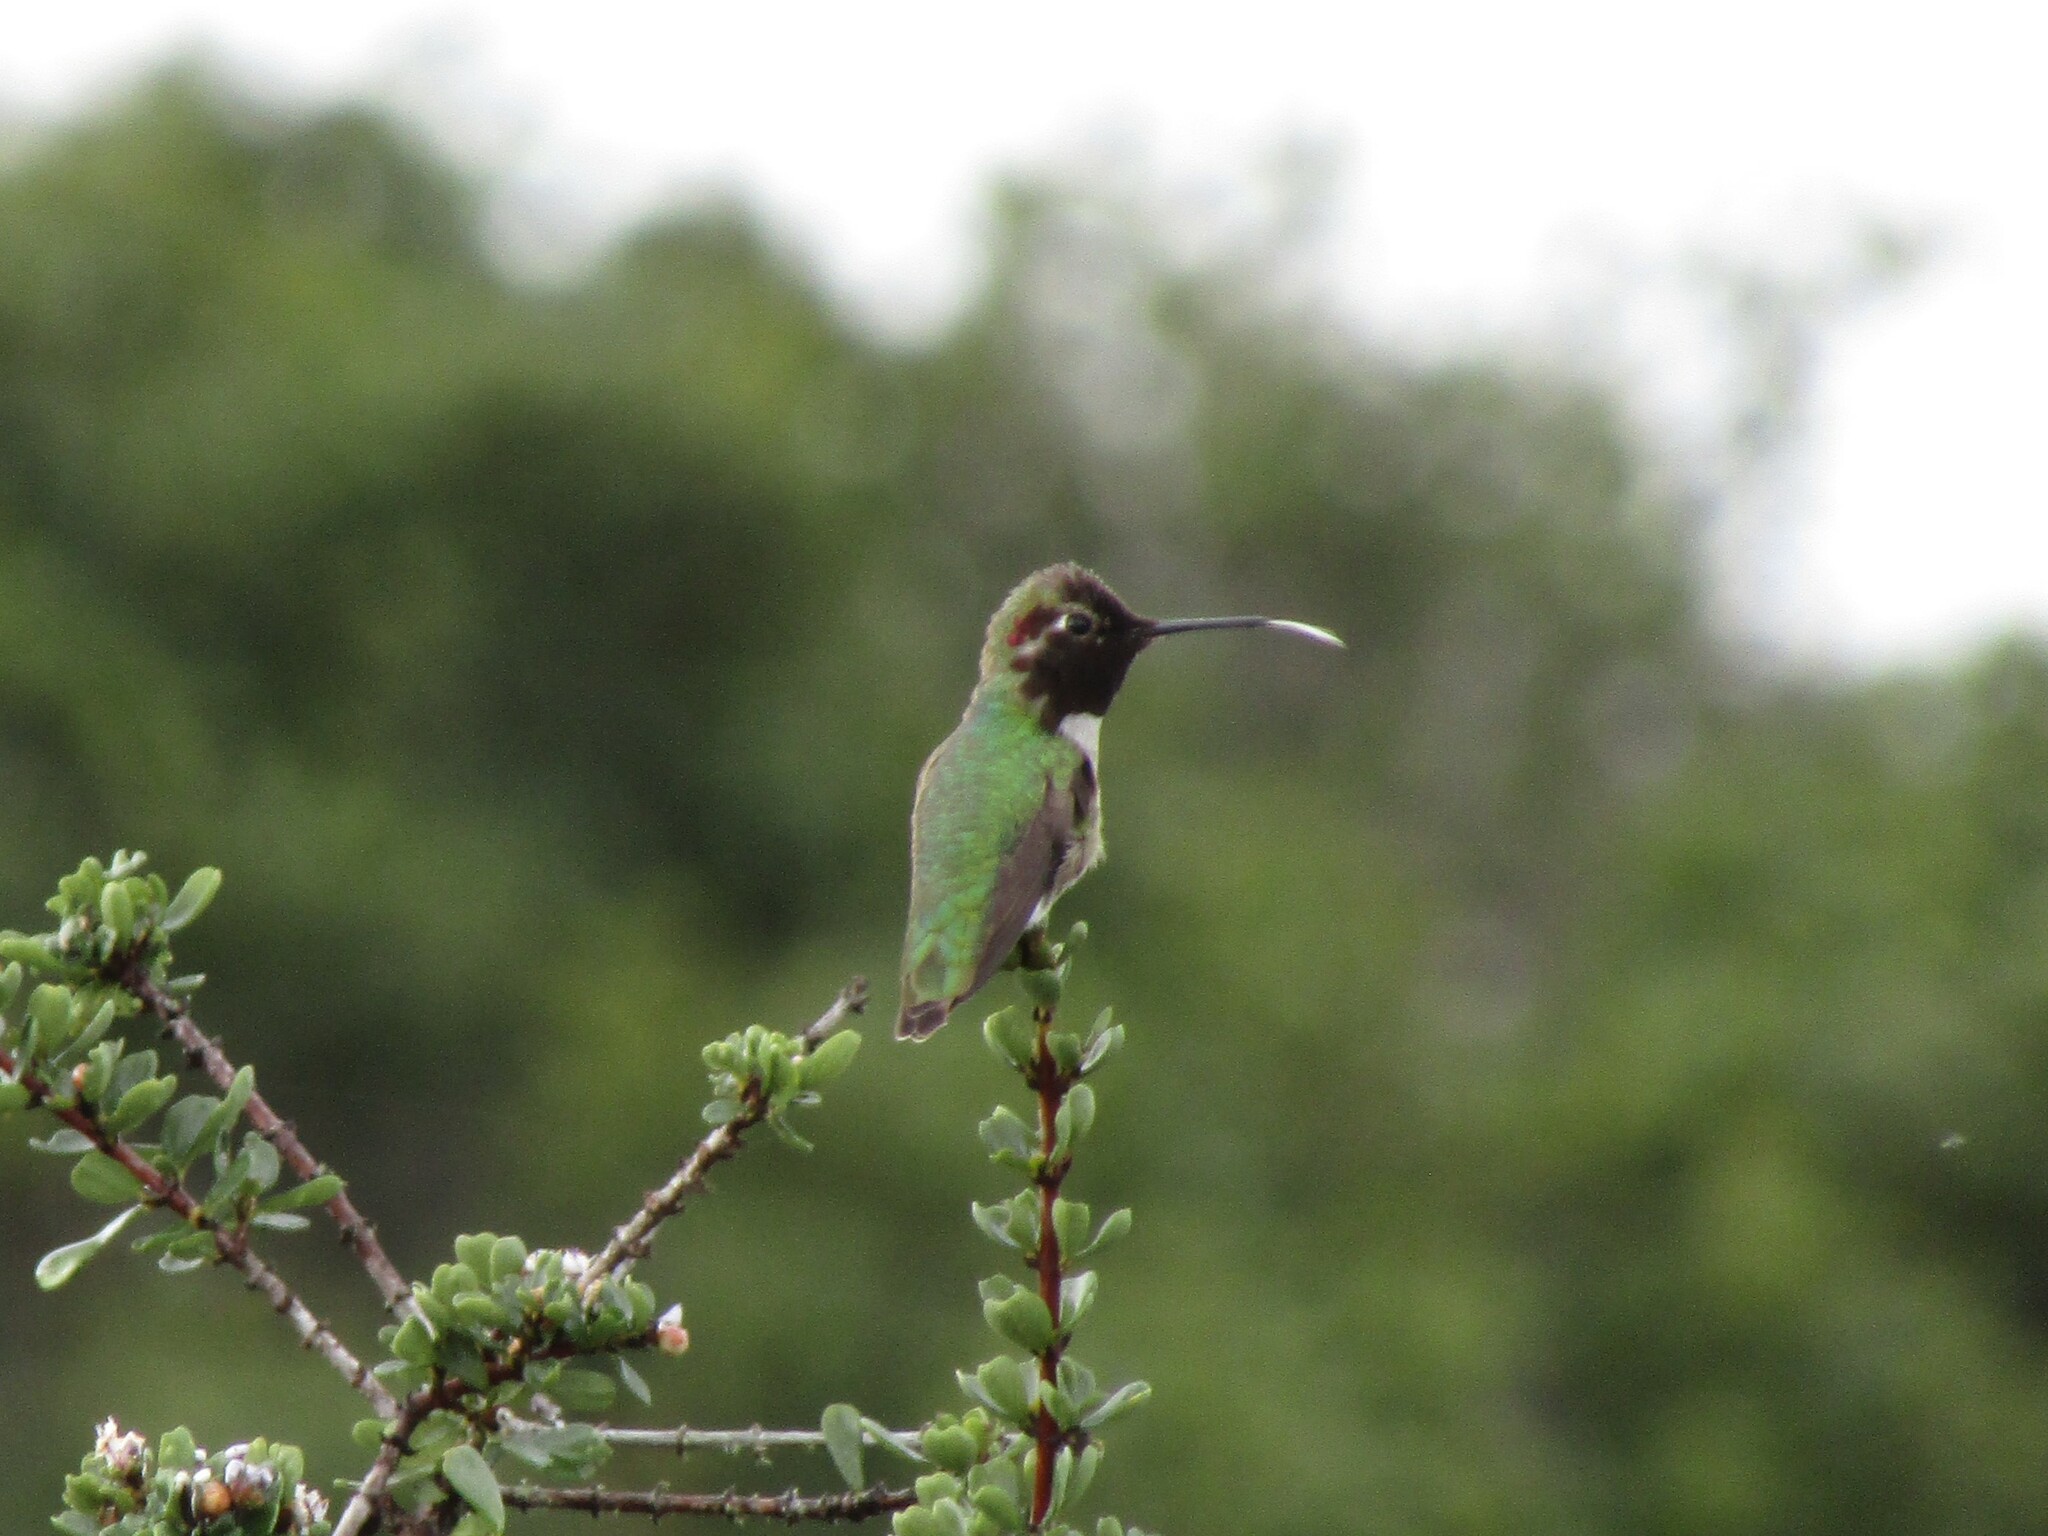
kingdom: Animalia
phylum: Chordata
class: Aves
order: Apodiformes
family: Trochilidae
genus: Calypte
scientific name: Calypte anna
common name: Anna's hummingbird
